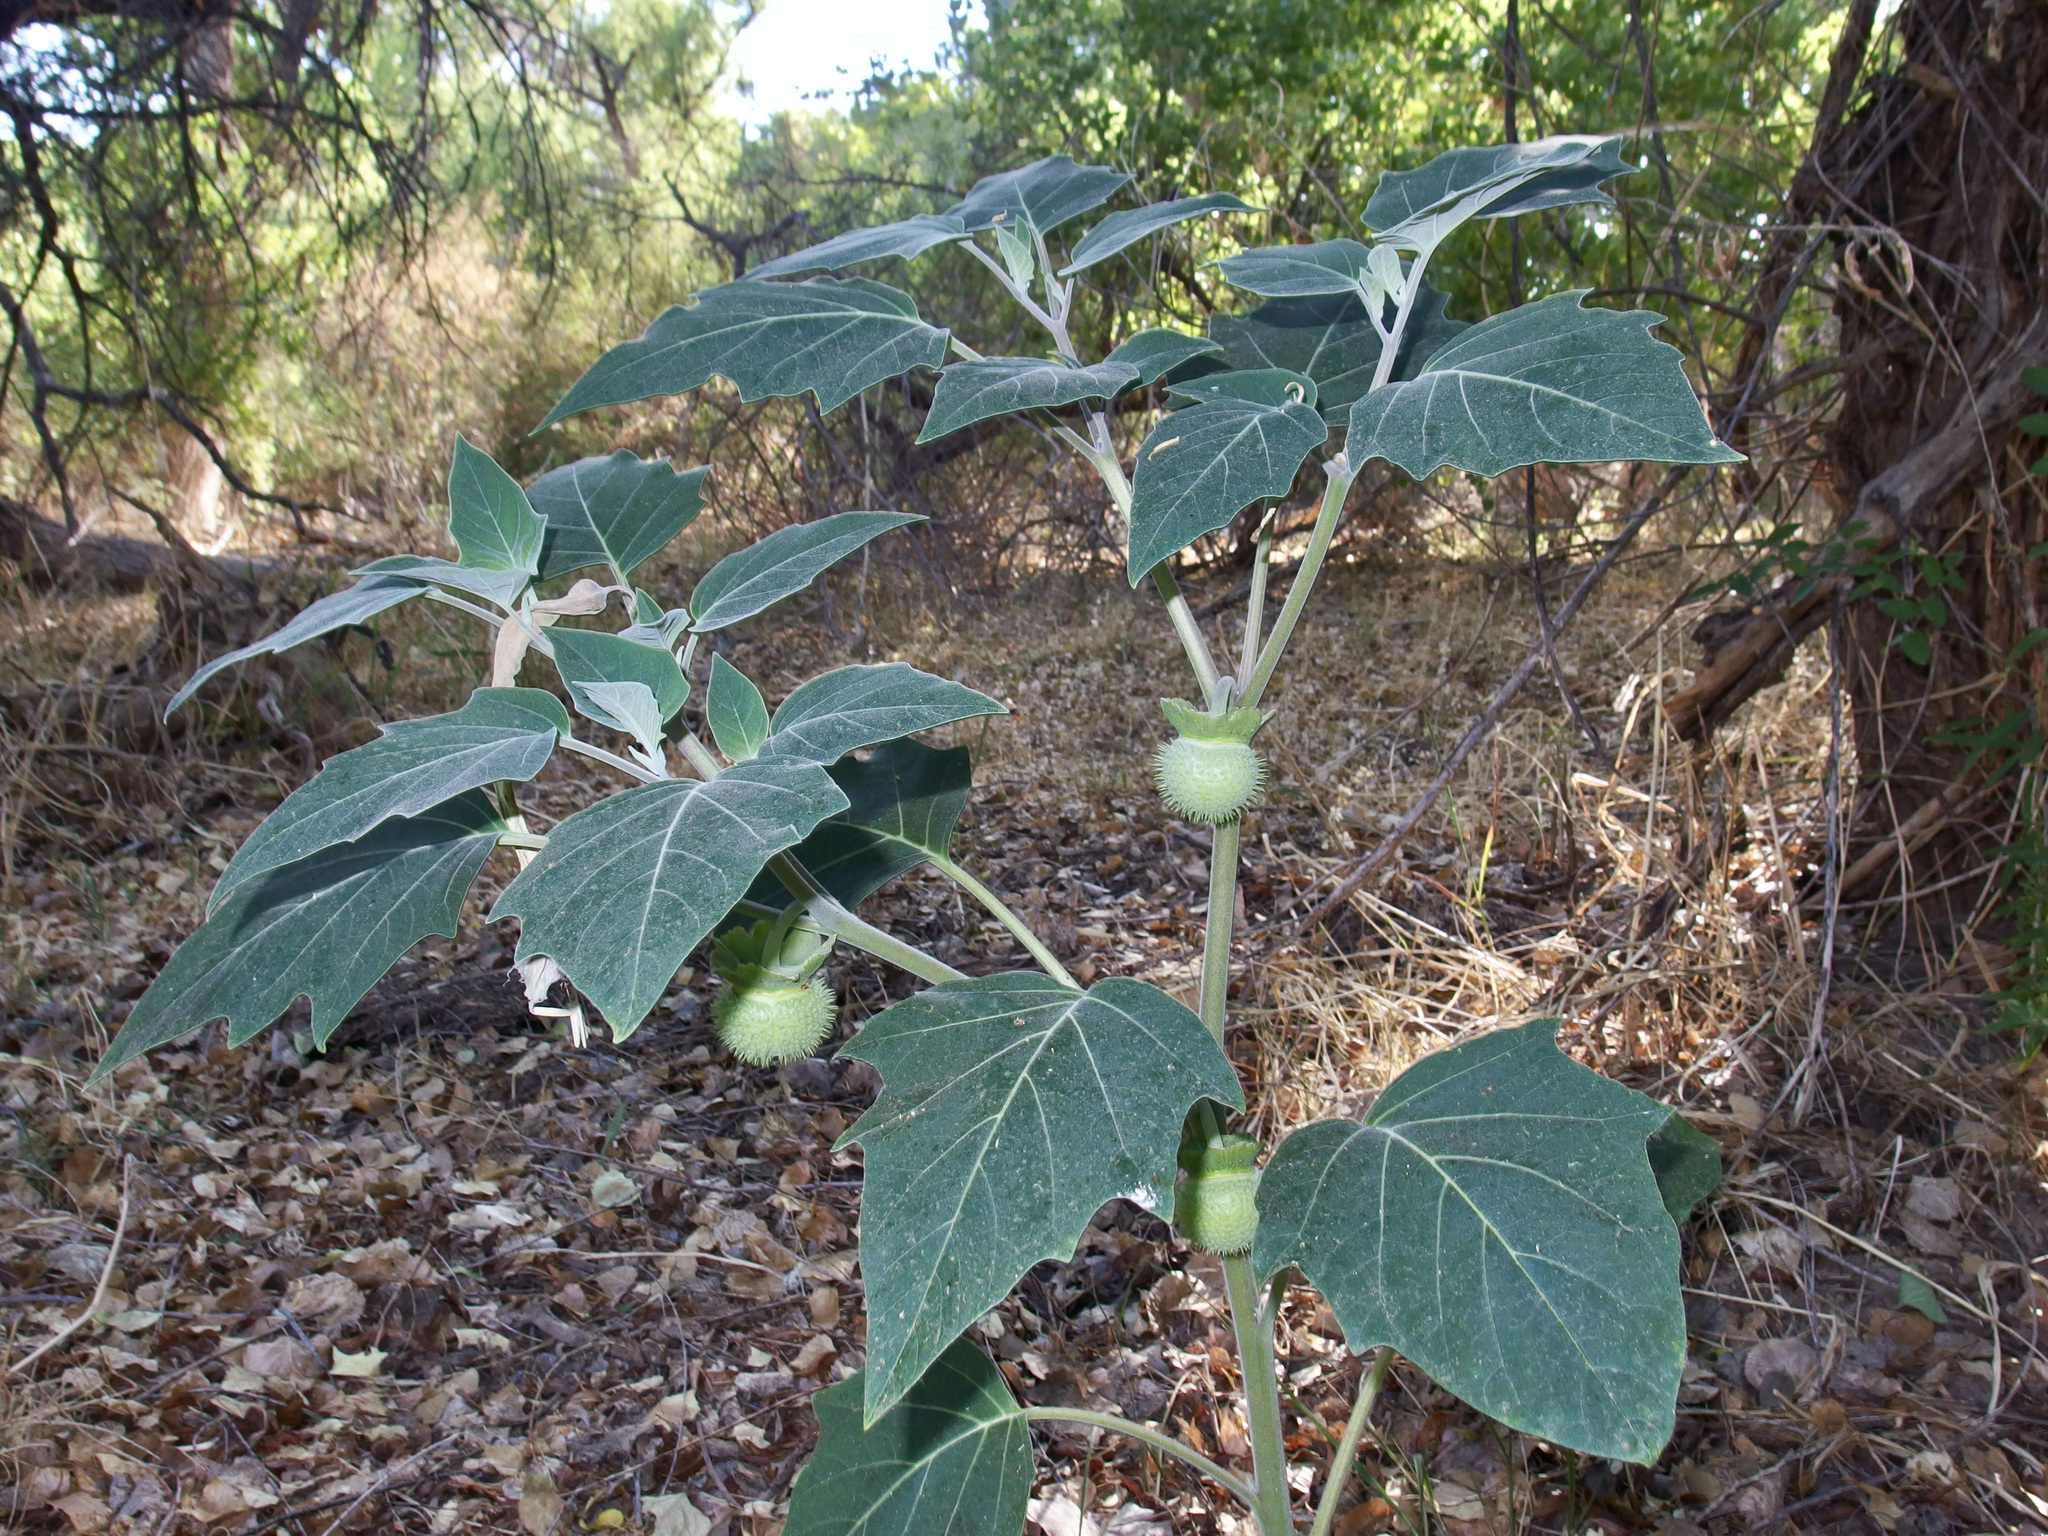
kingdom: Plantae
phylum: Tracheophyta
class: Magnoliopsida
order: Solanales
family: Solanaceae
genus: Datura
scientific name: Datura wrightii
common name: Sacred thorn-apple
